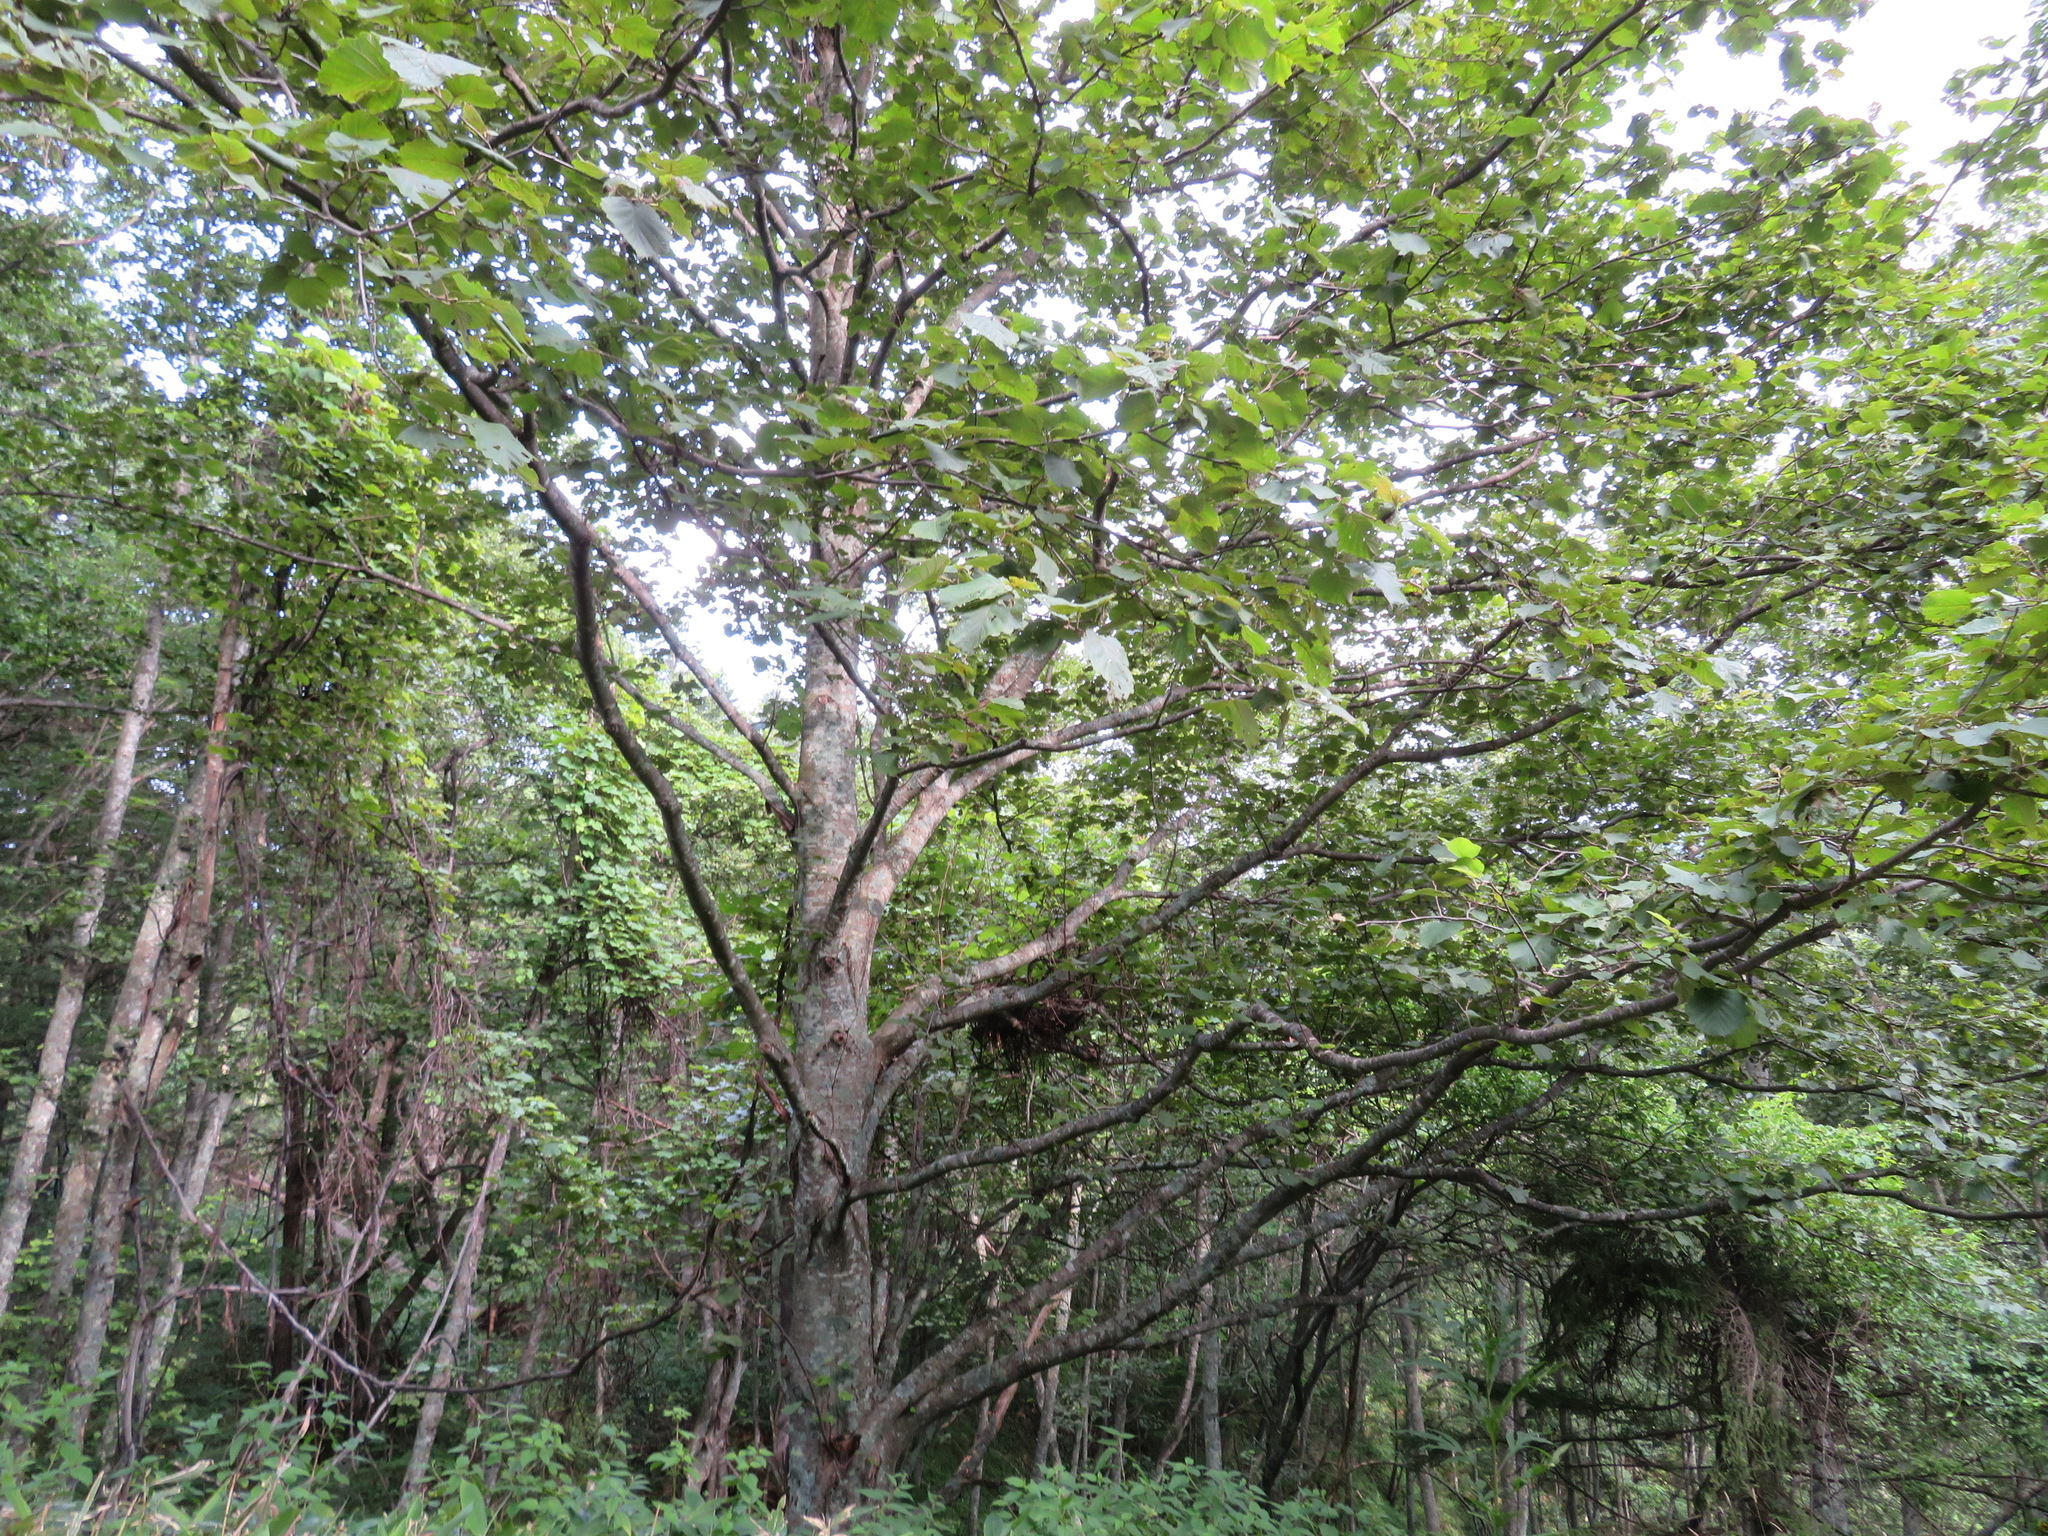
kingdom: Plantae
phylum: Tracheophyta
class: Magnoliopsida
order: Fagales
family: Betulaceae
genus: Alnus
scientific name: Alnus hirsuta
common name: Manchurian alder
